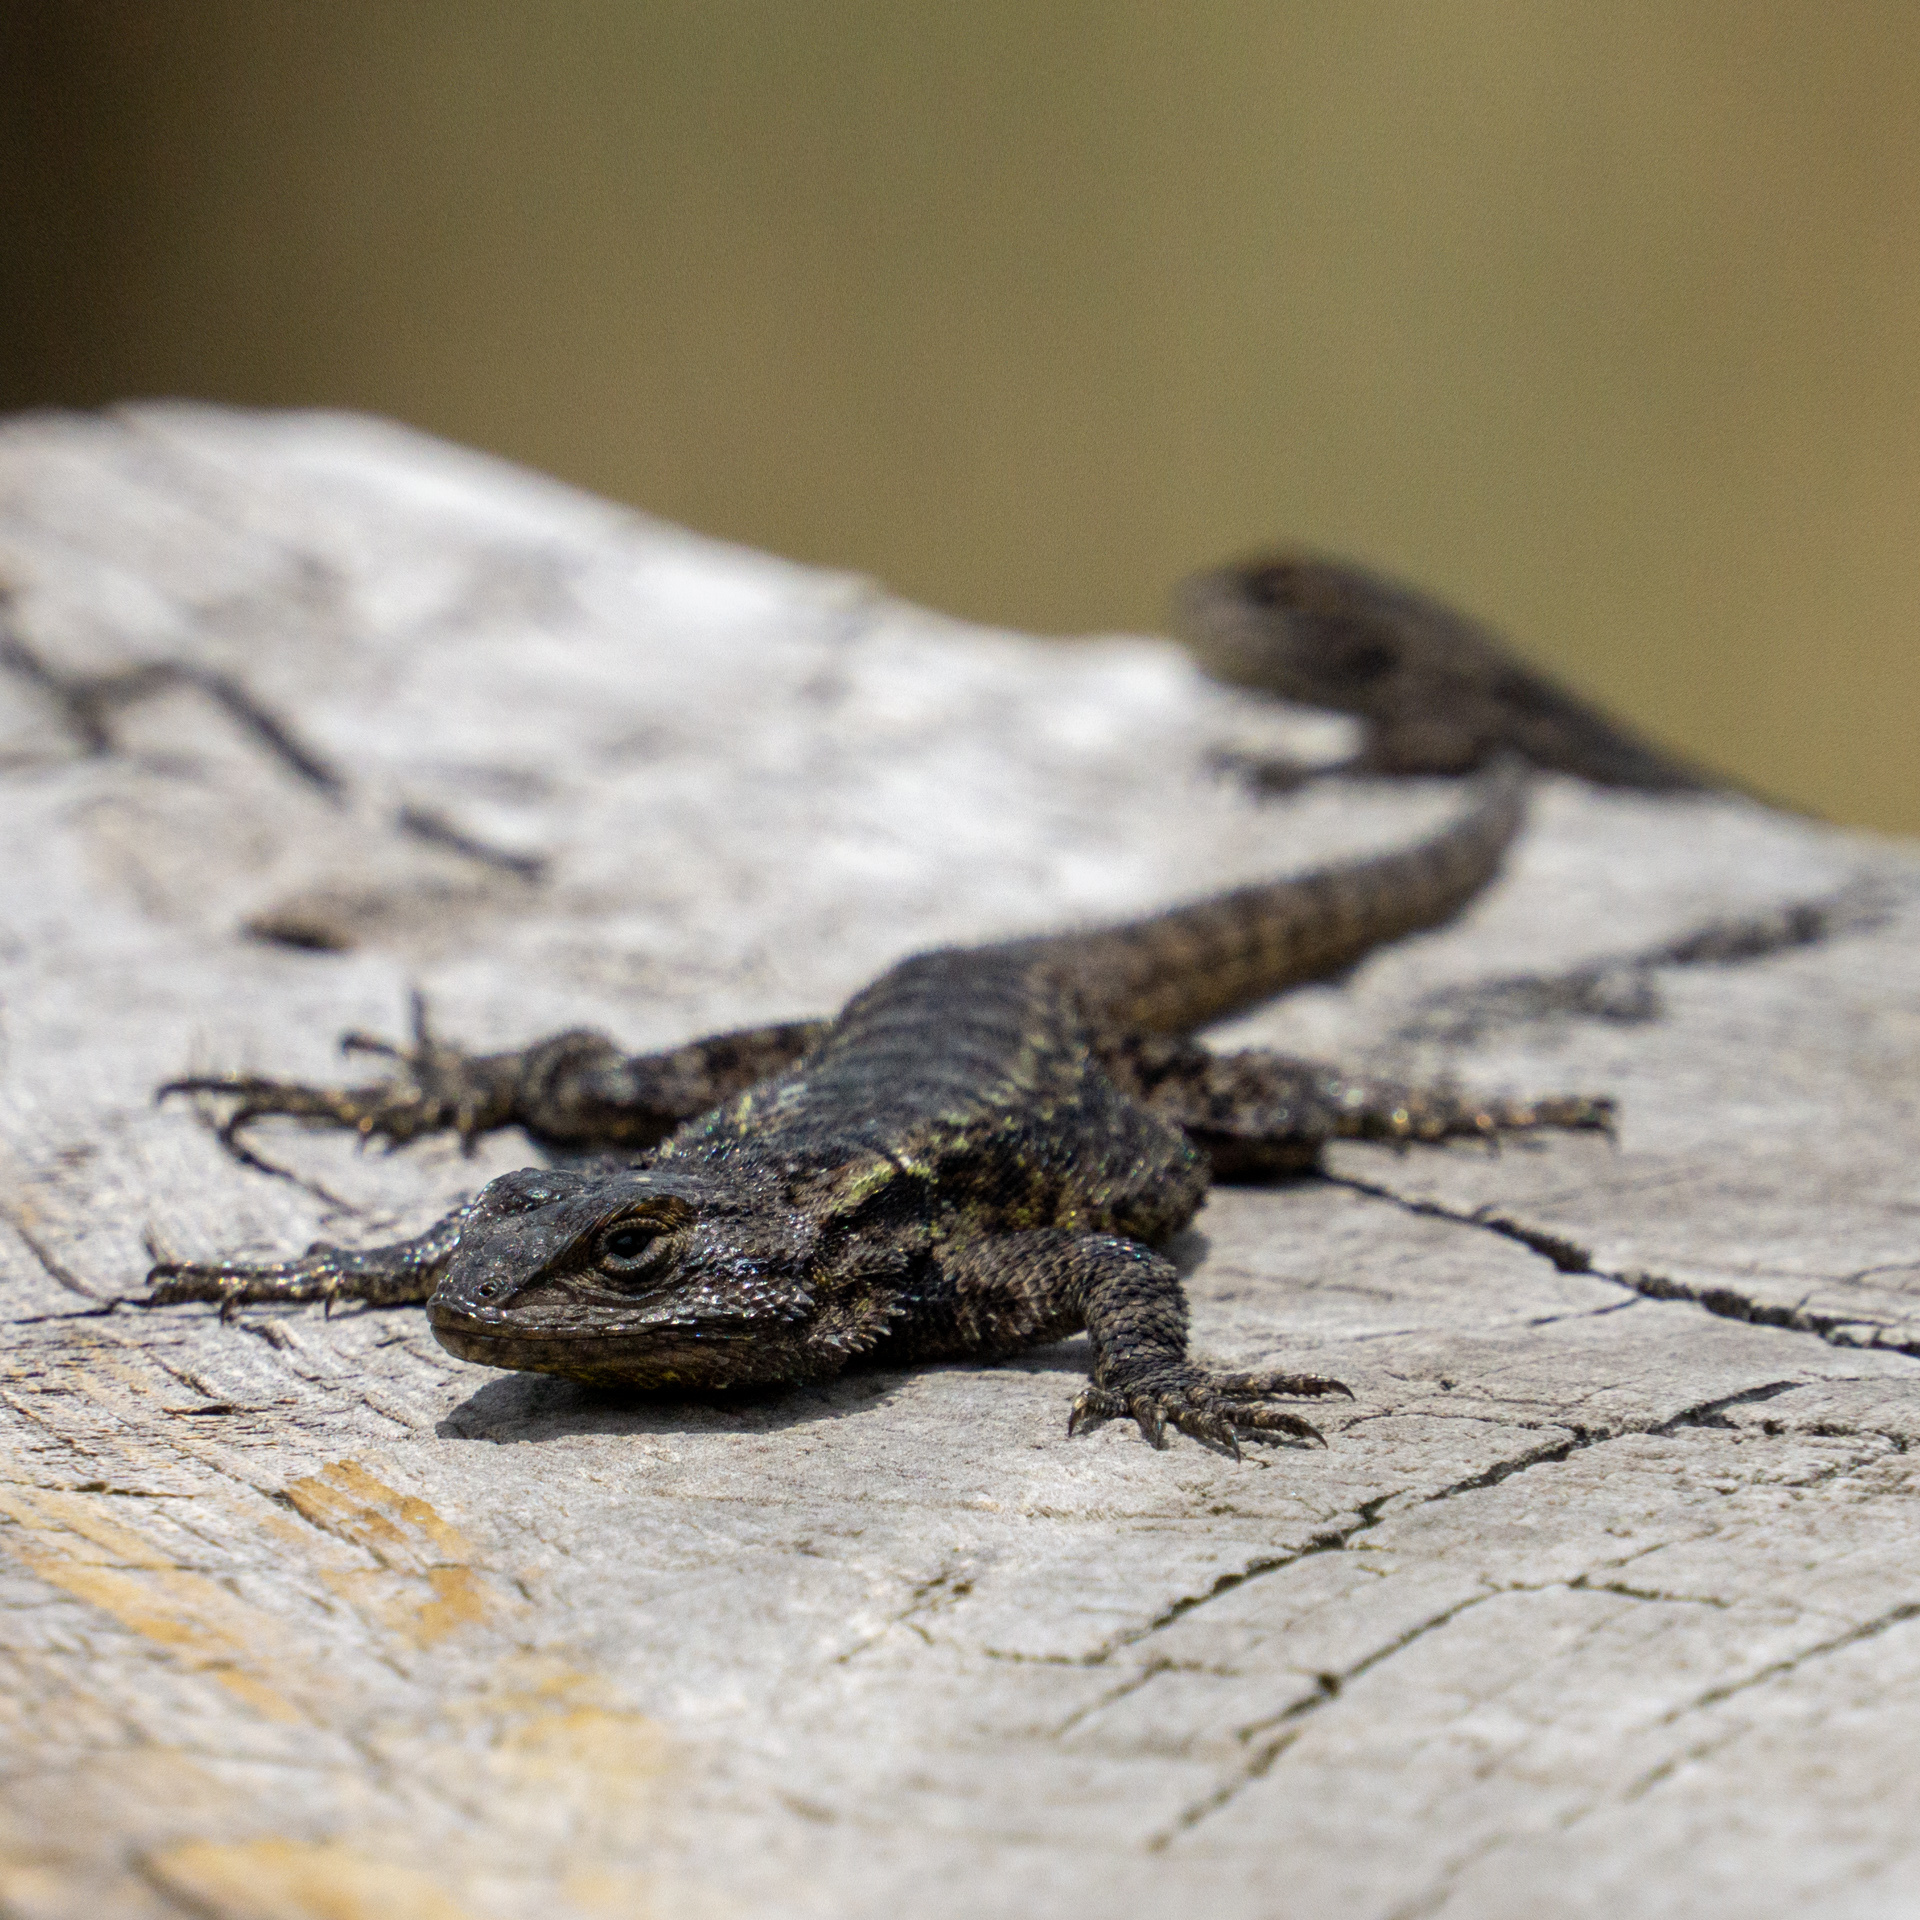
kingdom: Animalia
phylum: Chordata
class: Squamata
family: Phrynosomatidae
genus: Sceloporus
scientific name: Sceloporus anahuacus
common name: Anahuacan bunchgrass lizard
